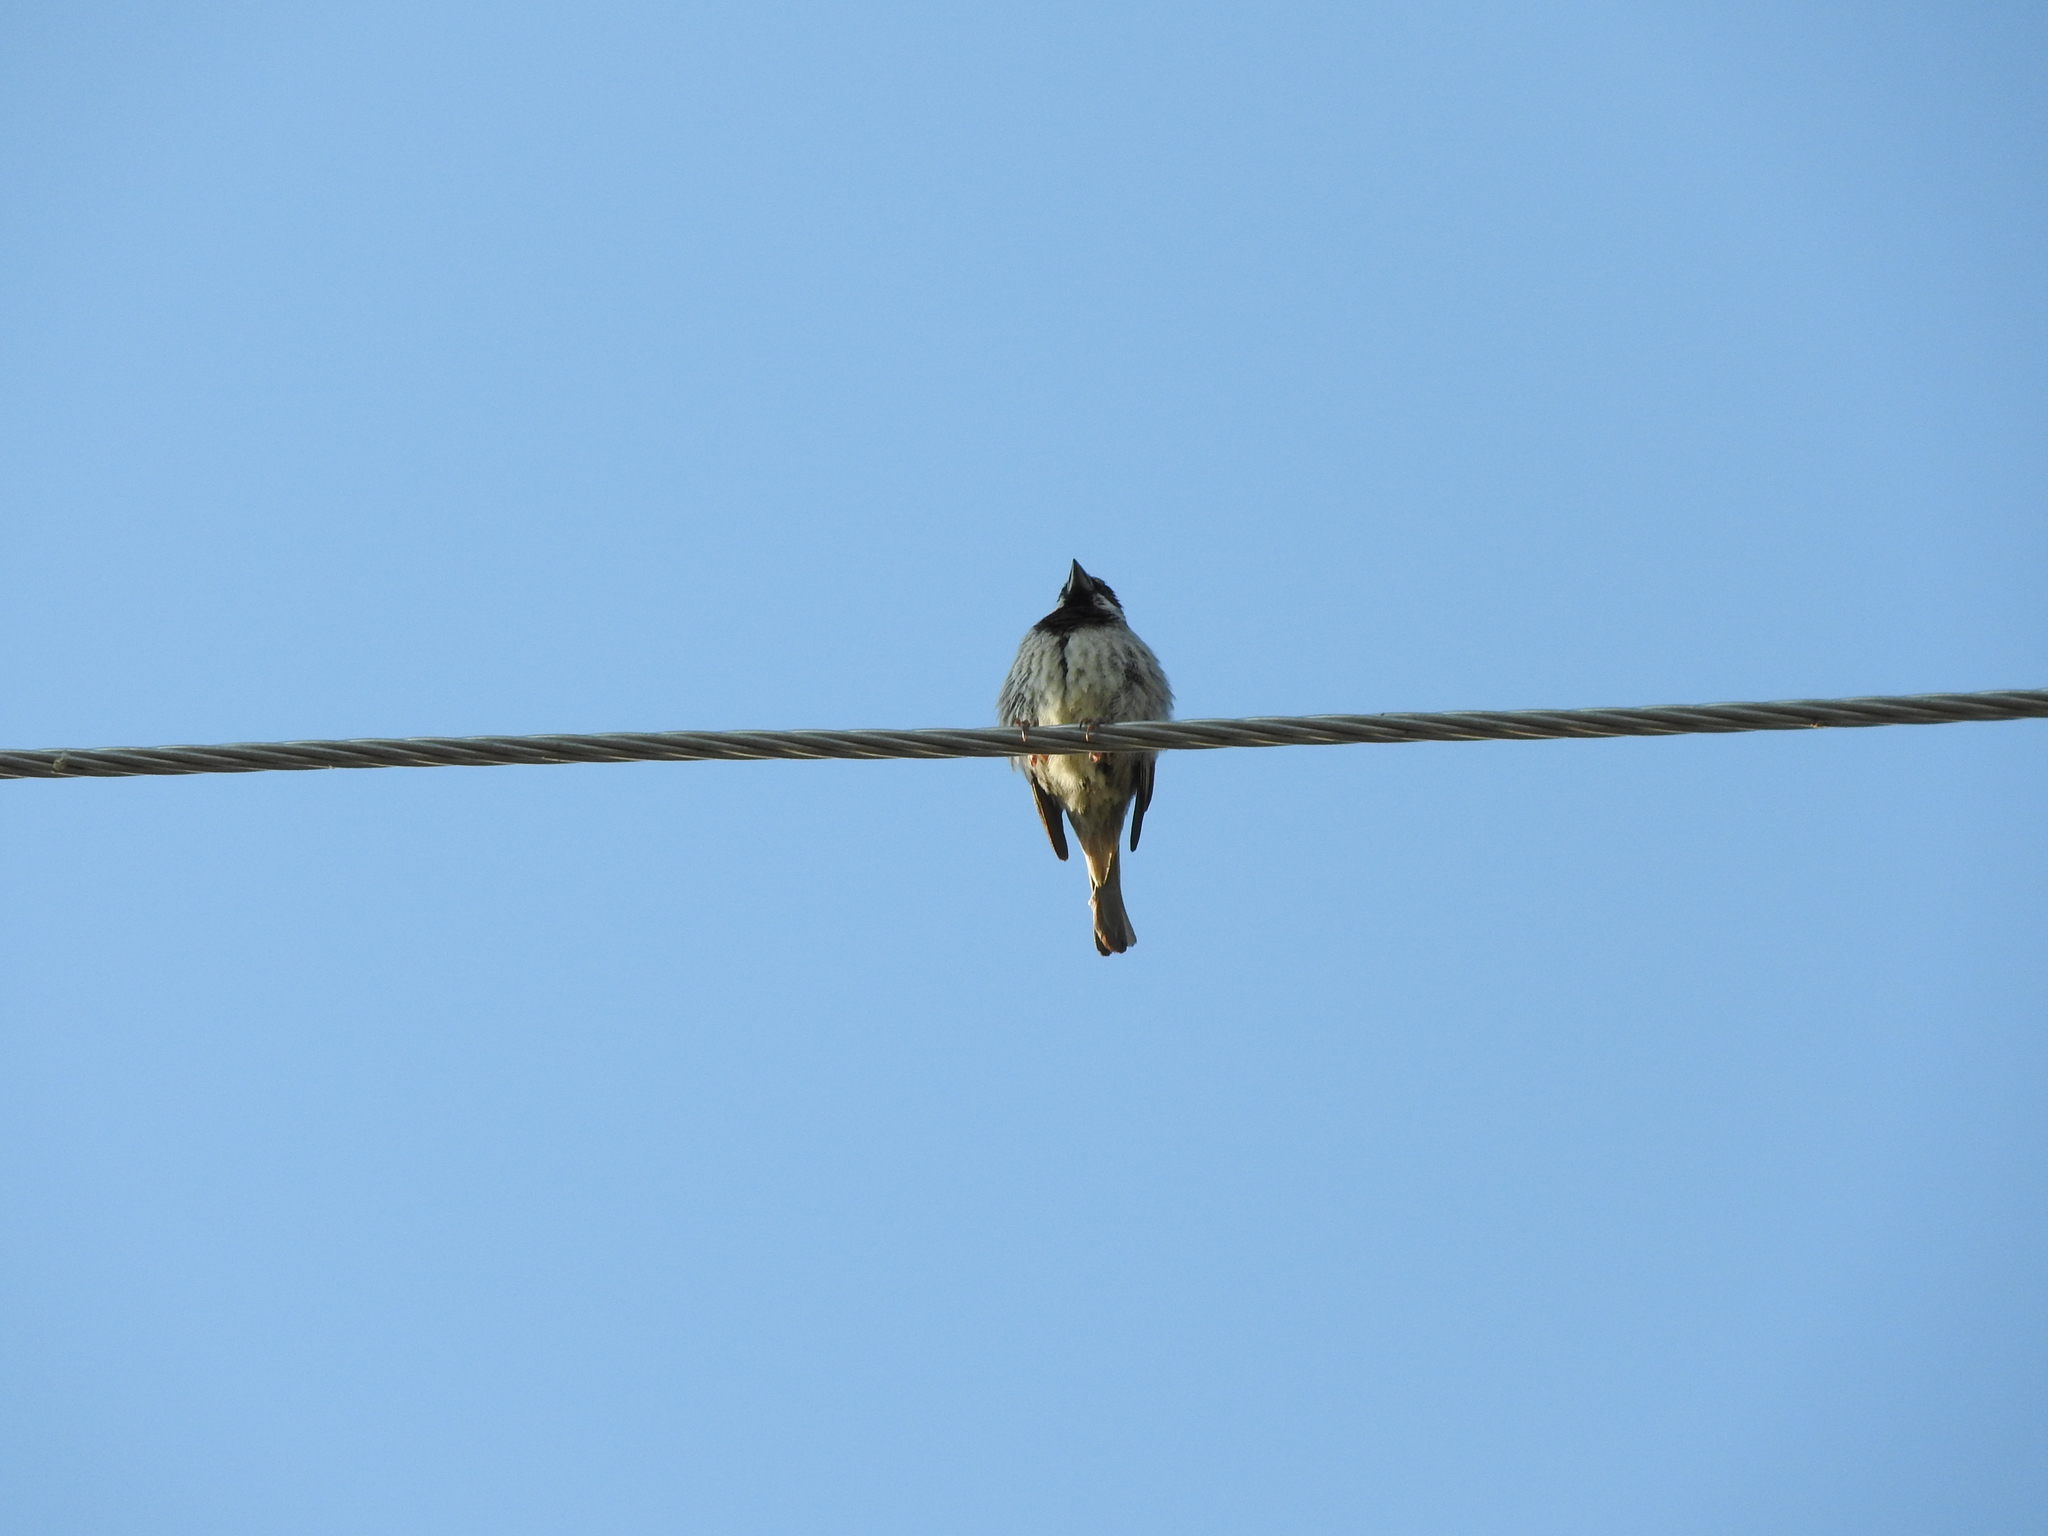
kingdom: Animalia
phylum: Chordata
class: Aves
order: Passeriformes
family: Passeridae
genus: Passer
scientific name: Passer domesticus
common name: House sparrow
